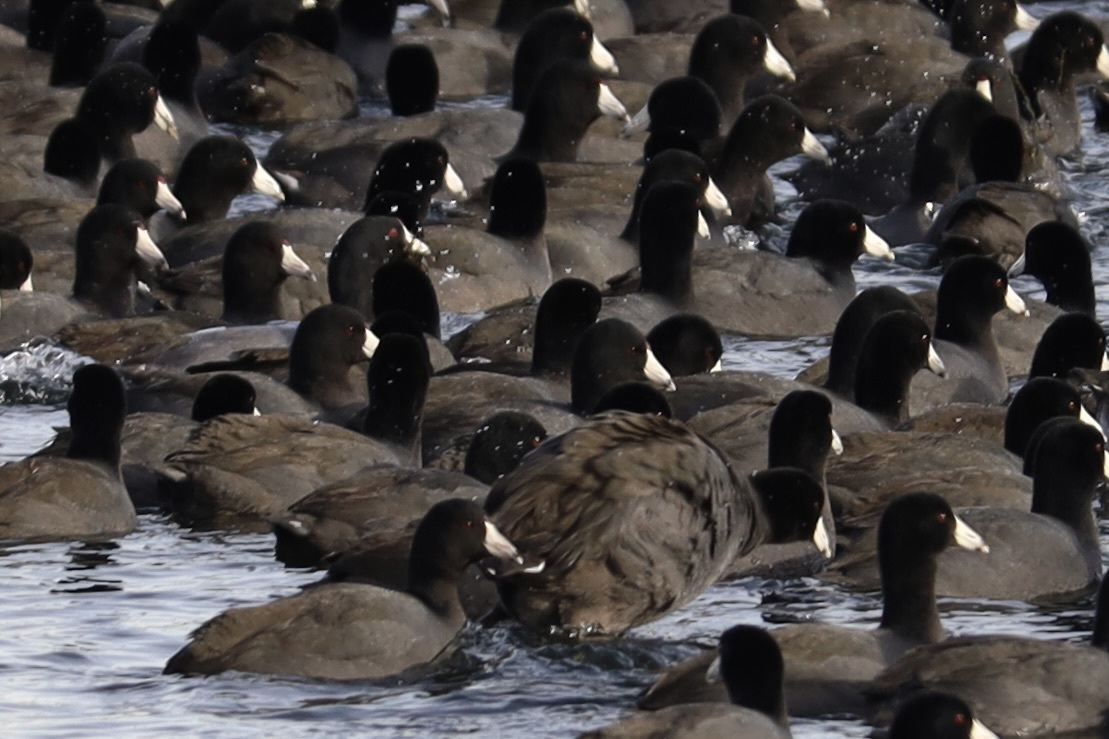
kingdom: Animalia
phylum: Chordata
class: Aves
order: Gruiformes
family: Rallidae
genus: Fulica
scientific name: Fulica americana
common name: American coot
